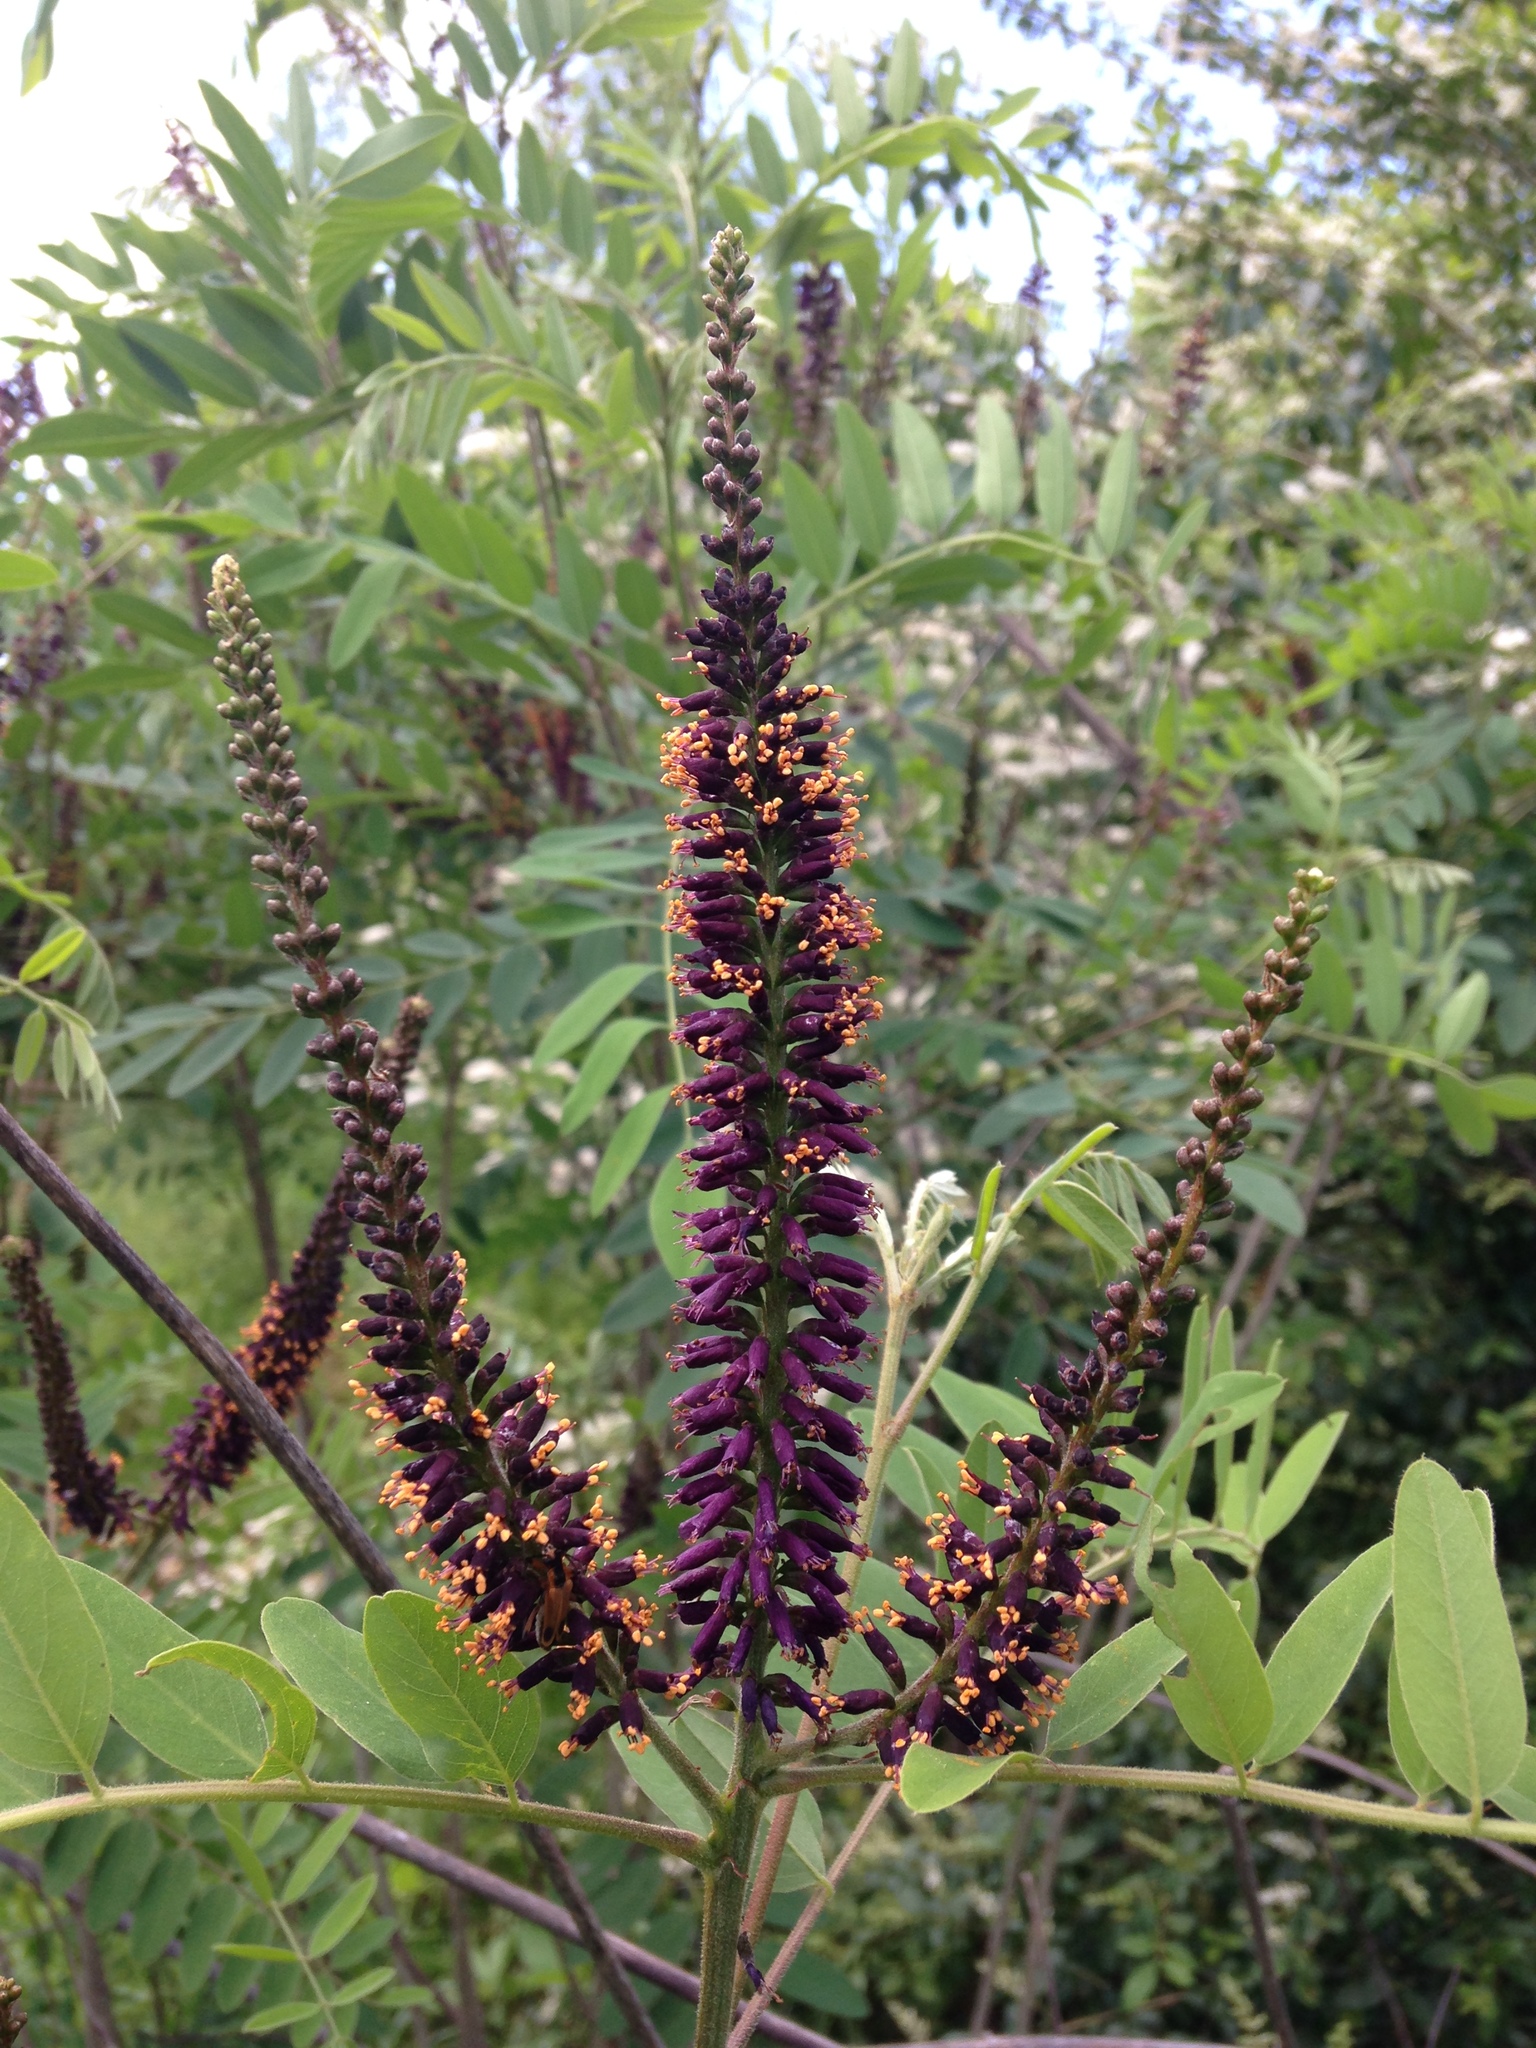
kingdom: Plantae
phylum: Tracheophyta
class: Magnoliopsida
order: Fabales
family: Fabaceae
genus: Amorpha
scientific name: Amorpha fruticosa
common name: False indigo
